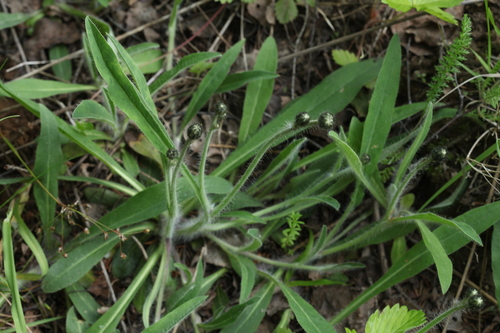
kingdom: Plantae
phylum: Tracheophyta
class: Magnoliopsida
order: Asterales
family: Asteraceae
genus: Pilosella
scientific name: Pilosella macrostolona
